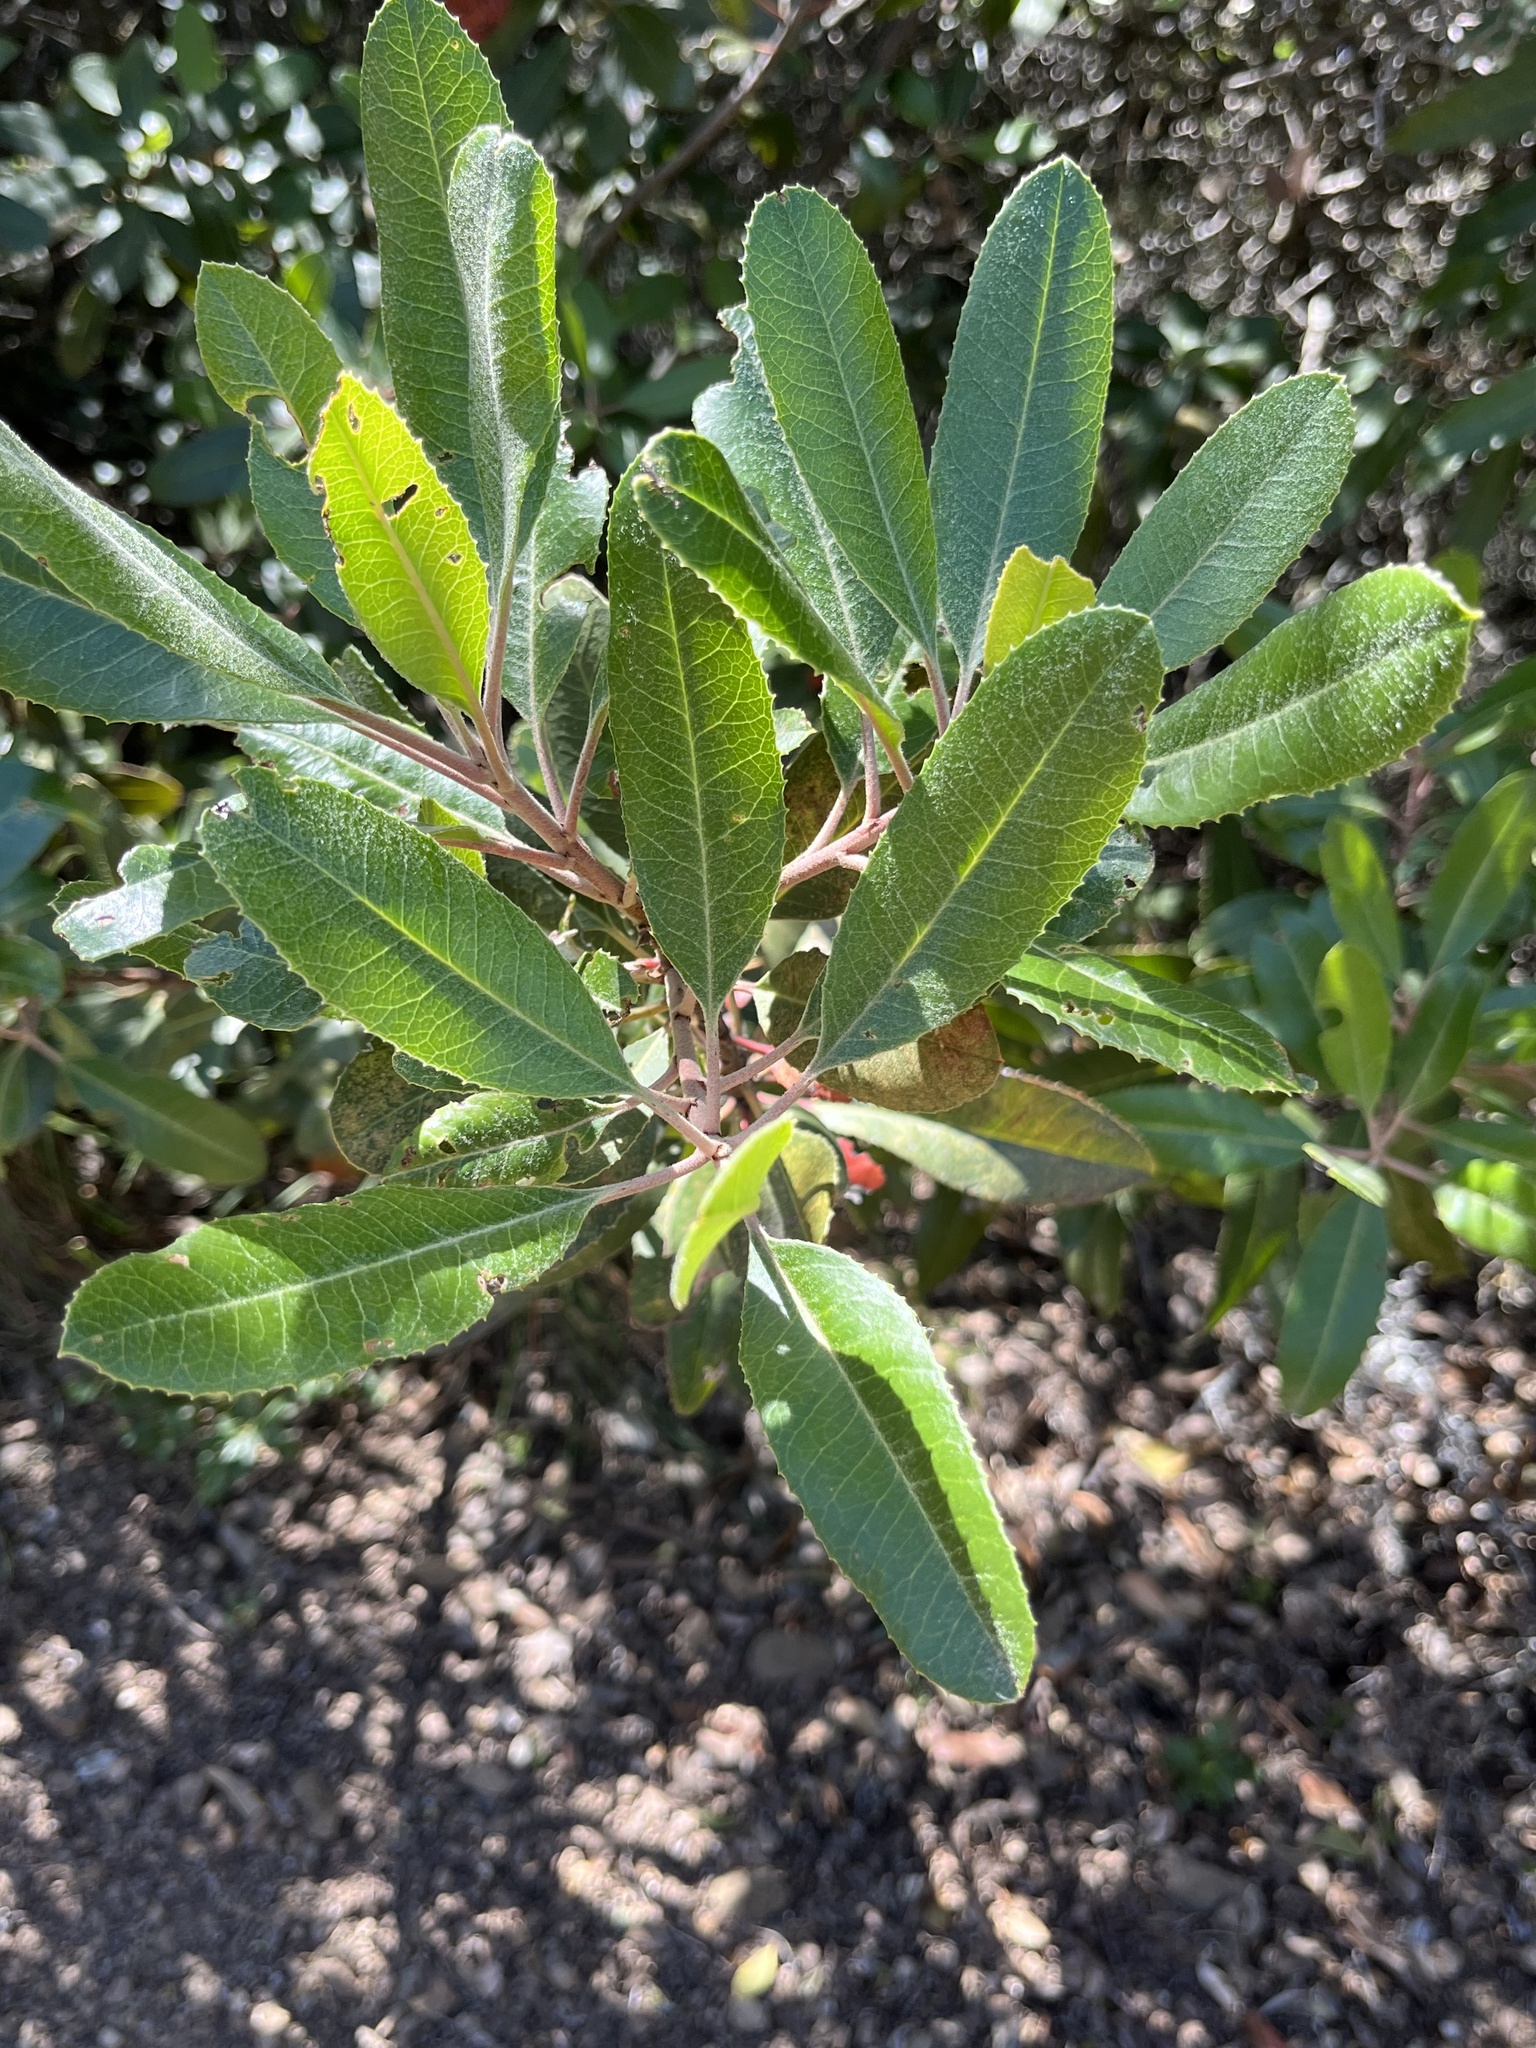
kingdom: Plantae
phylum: Tracheophyta
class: Magnoliopsida
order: Rosales
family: Rosaceae
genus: Heteromeles
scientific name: Heteromeles arbutifolia
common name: California-holly
